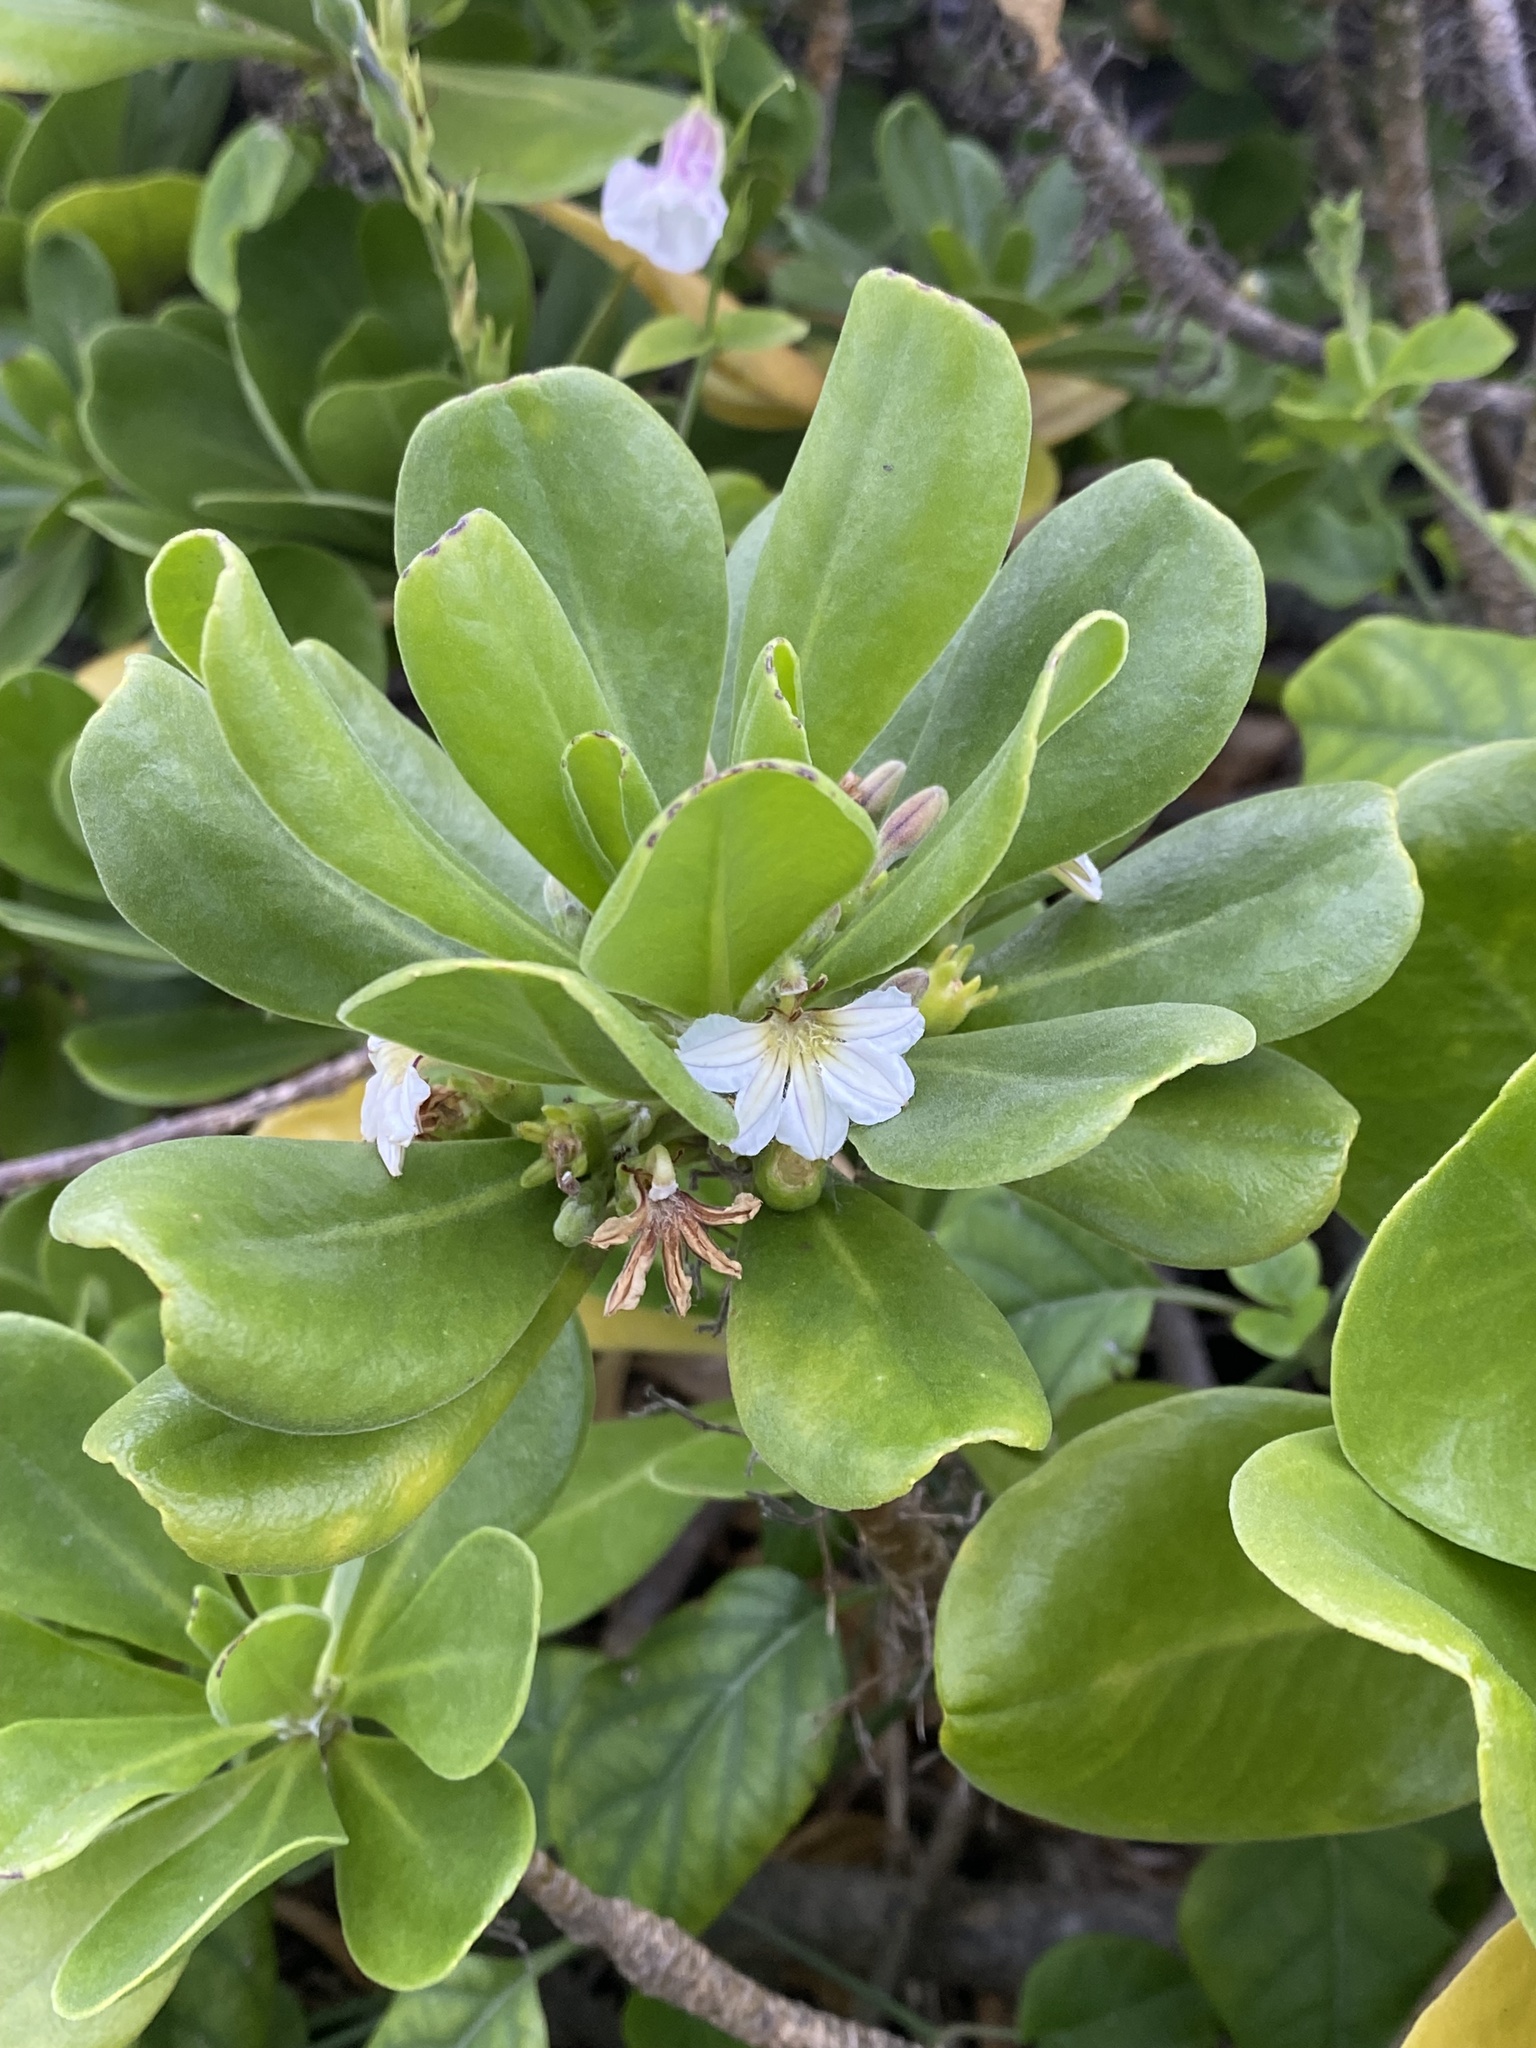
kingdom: Plantae
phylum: Tracheophyta
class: Magnoliopsida
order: Asterales
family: Goodeniaceae
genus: Scaevola
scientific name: Scaevola taccada
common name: Sea lettucetree
